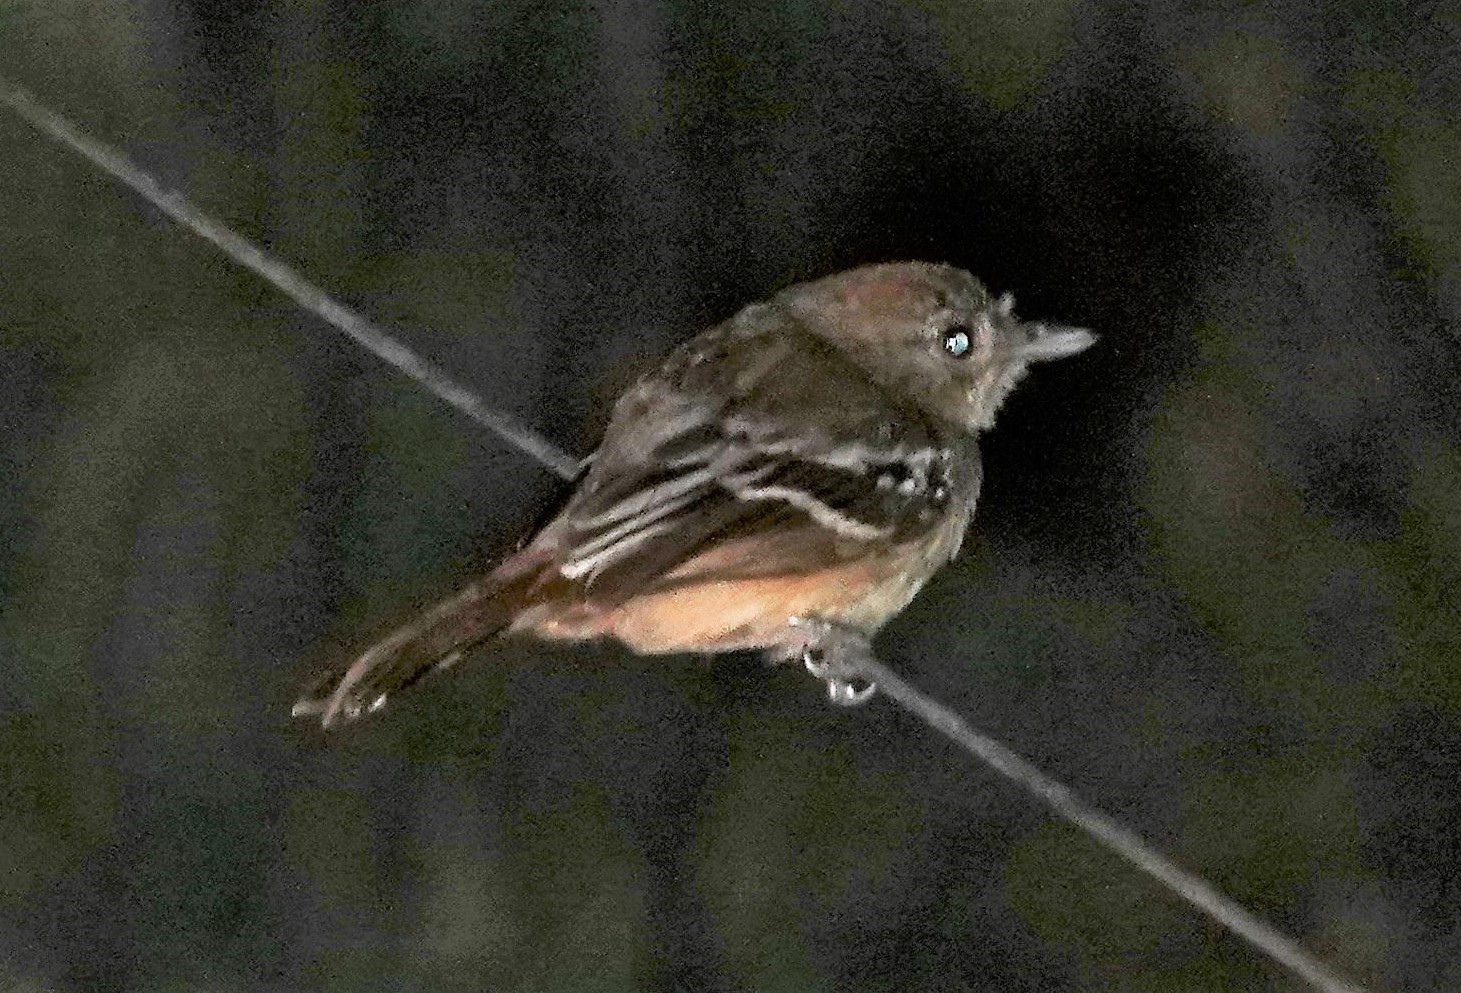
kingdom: Animalia
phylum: Chordata
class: Aves
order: Passeriformes
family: Thamnophilidae
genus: Thamnophilus
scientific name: Thamnophilus pelzelni
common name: Planalto slaty-antshrike
